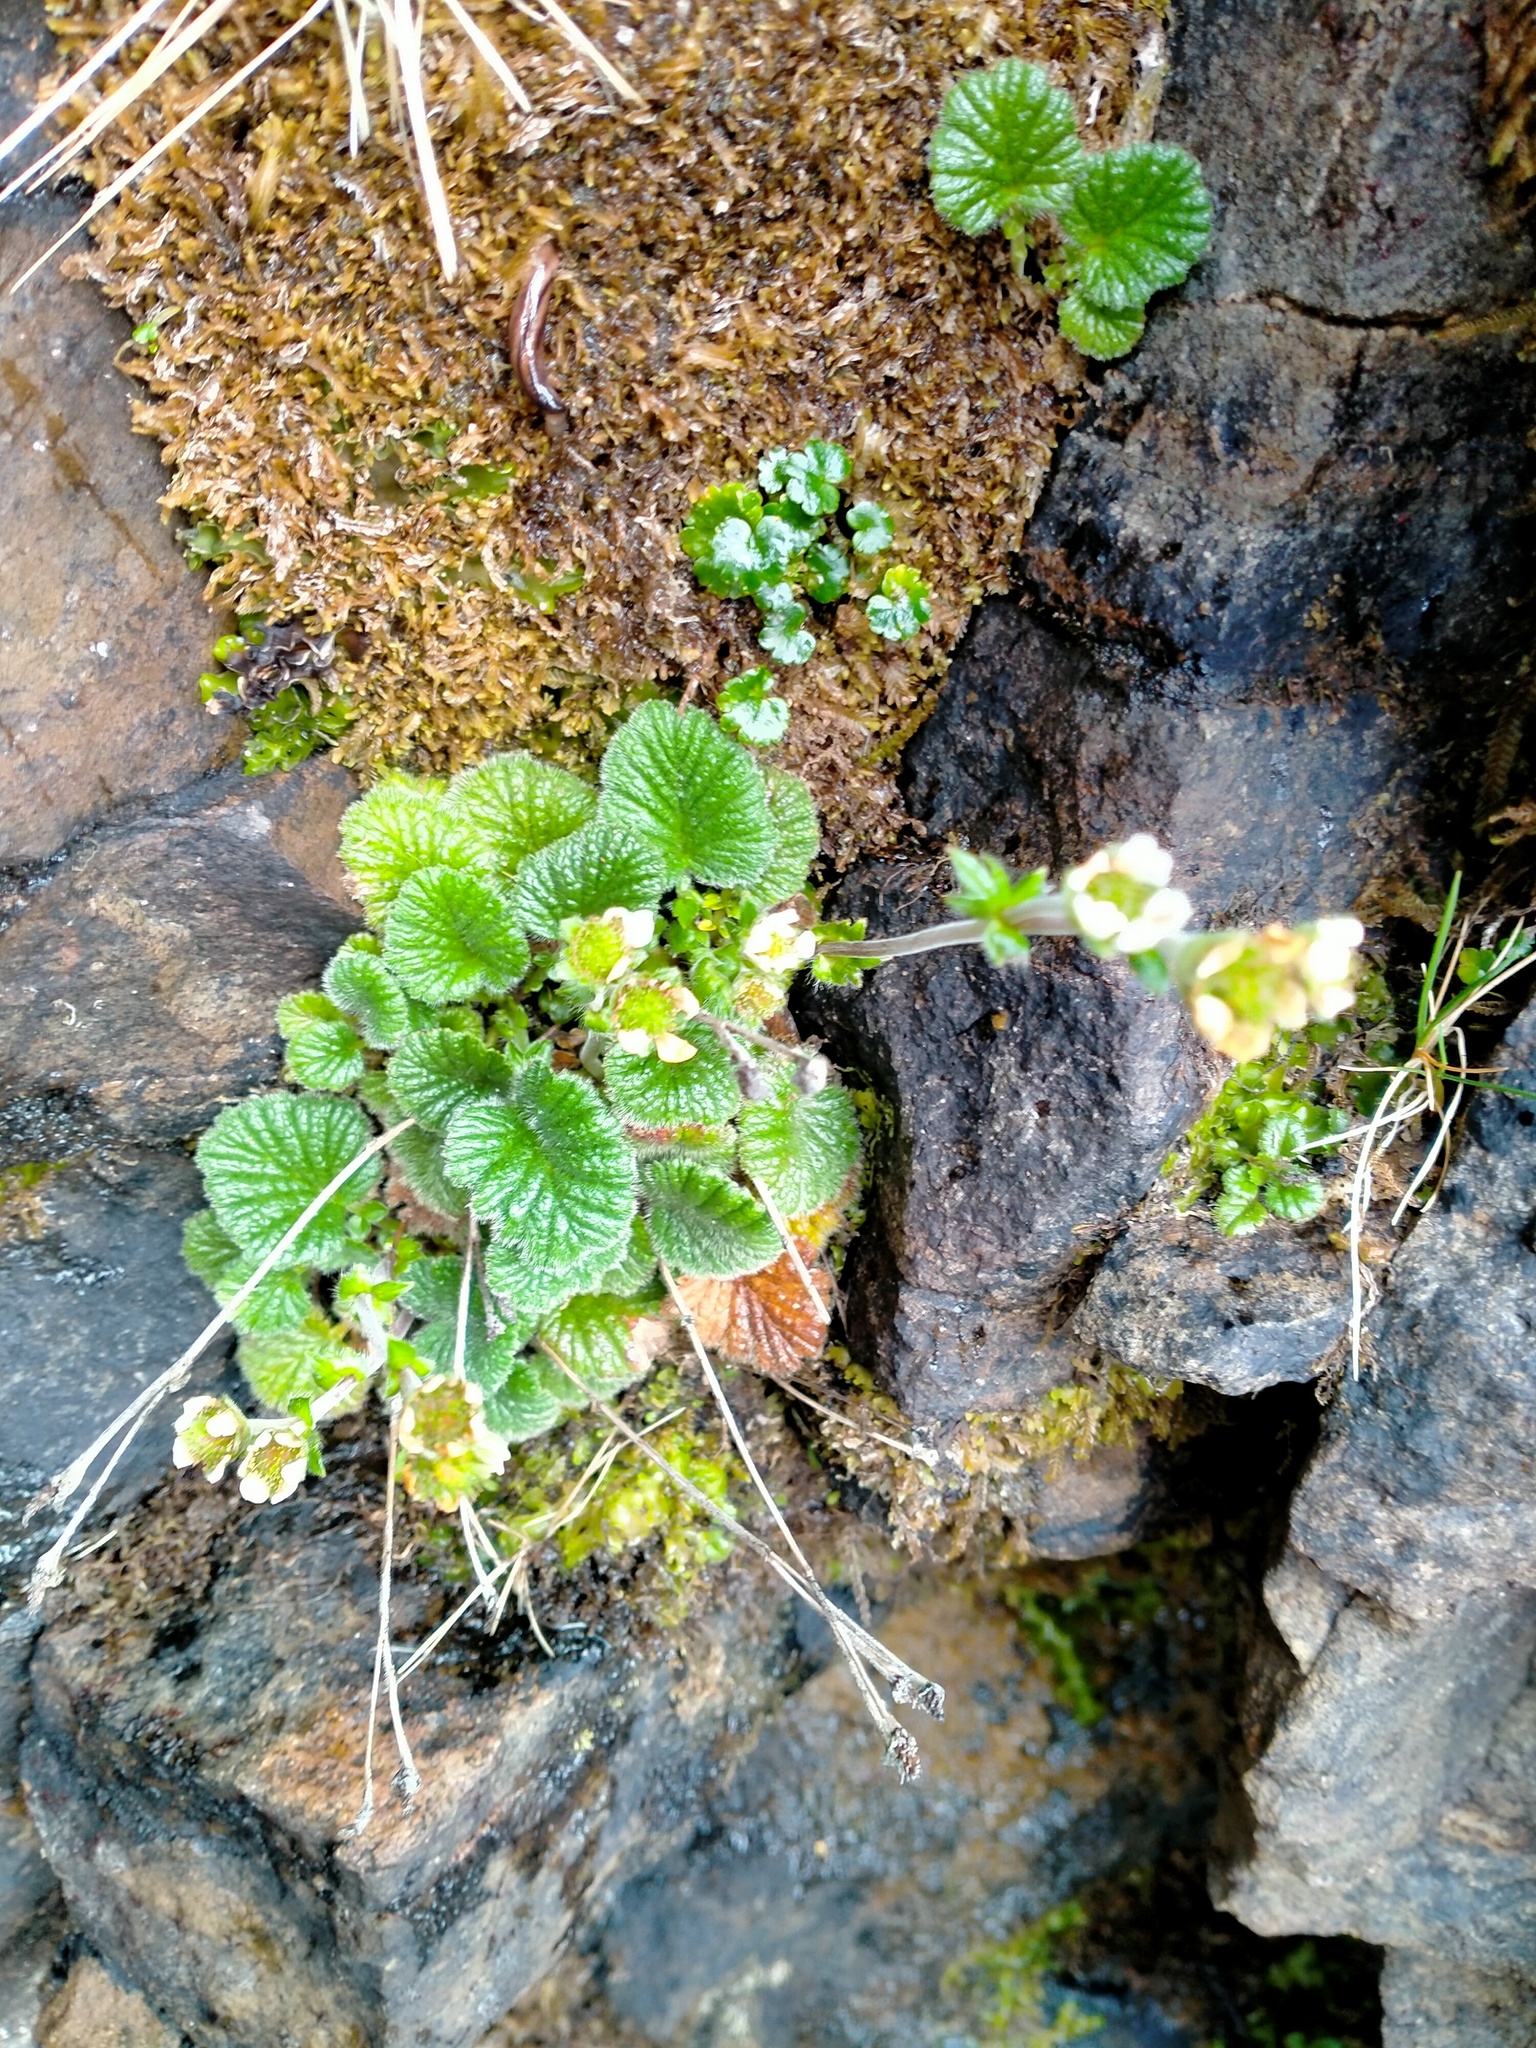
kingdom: Plantae
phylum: Tracheophyta
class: Magnoliopsida
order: Rosales
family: Rosaceae
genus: Geum
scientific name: Geum albiflorum
